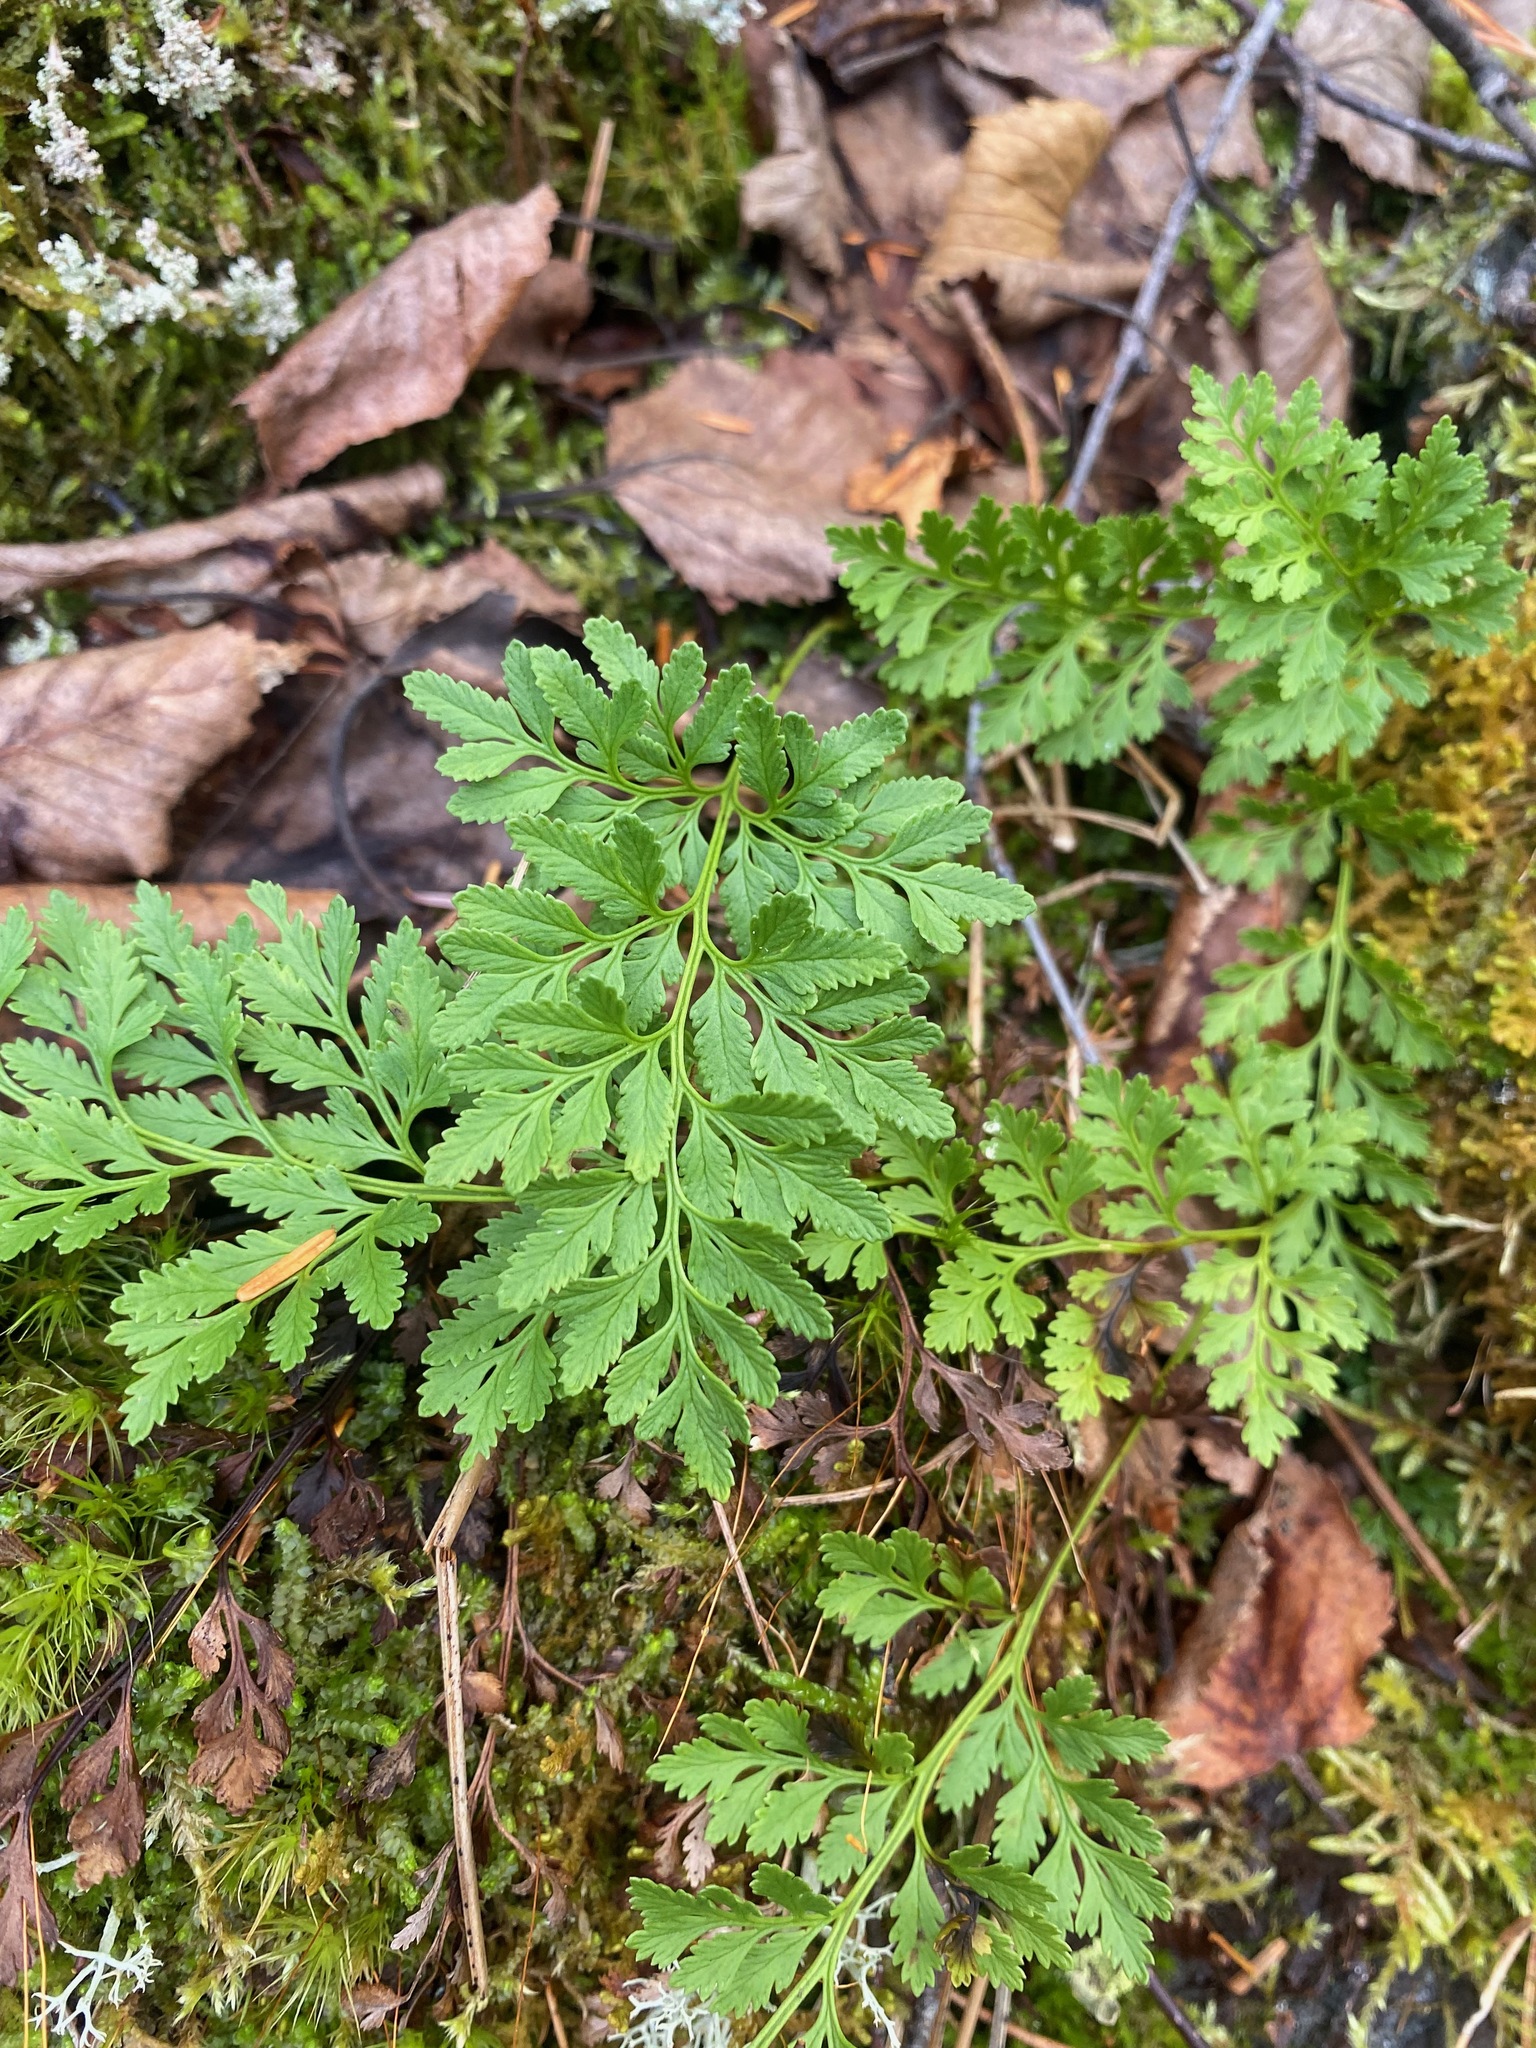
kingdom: Plantae
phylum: Tracheophyta
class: Polypodiopsida
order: Polypodiales
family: Pteridaceae
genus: Cryptogramma
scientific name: Cryptogramma acrostichoides
